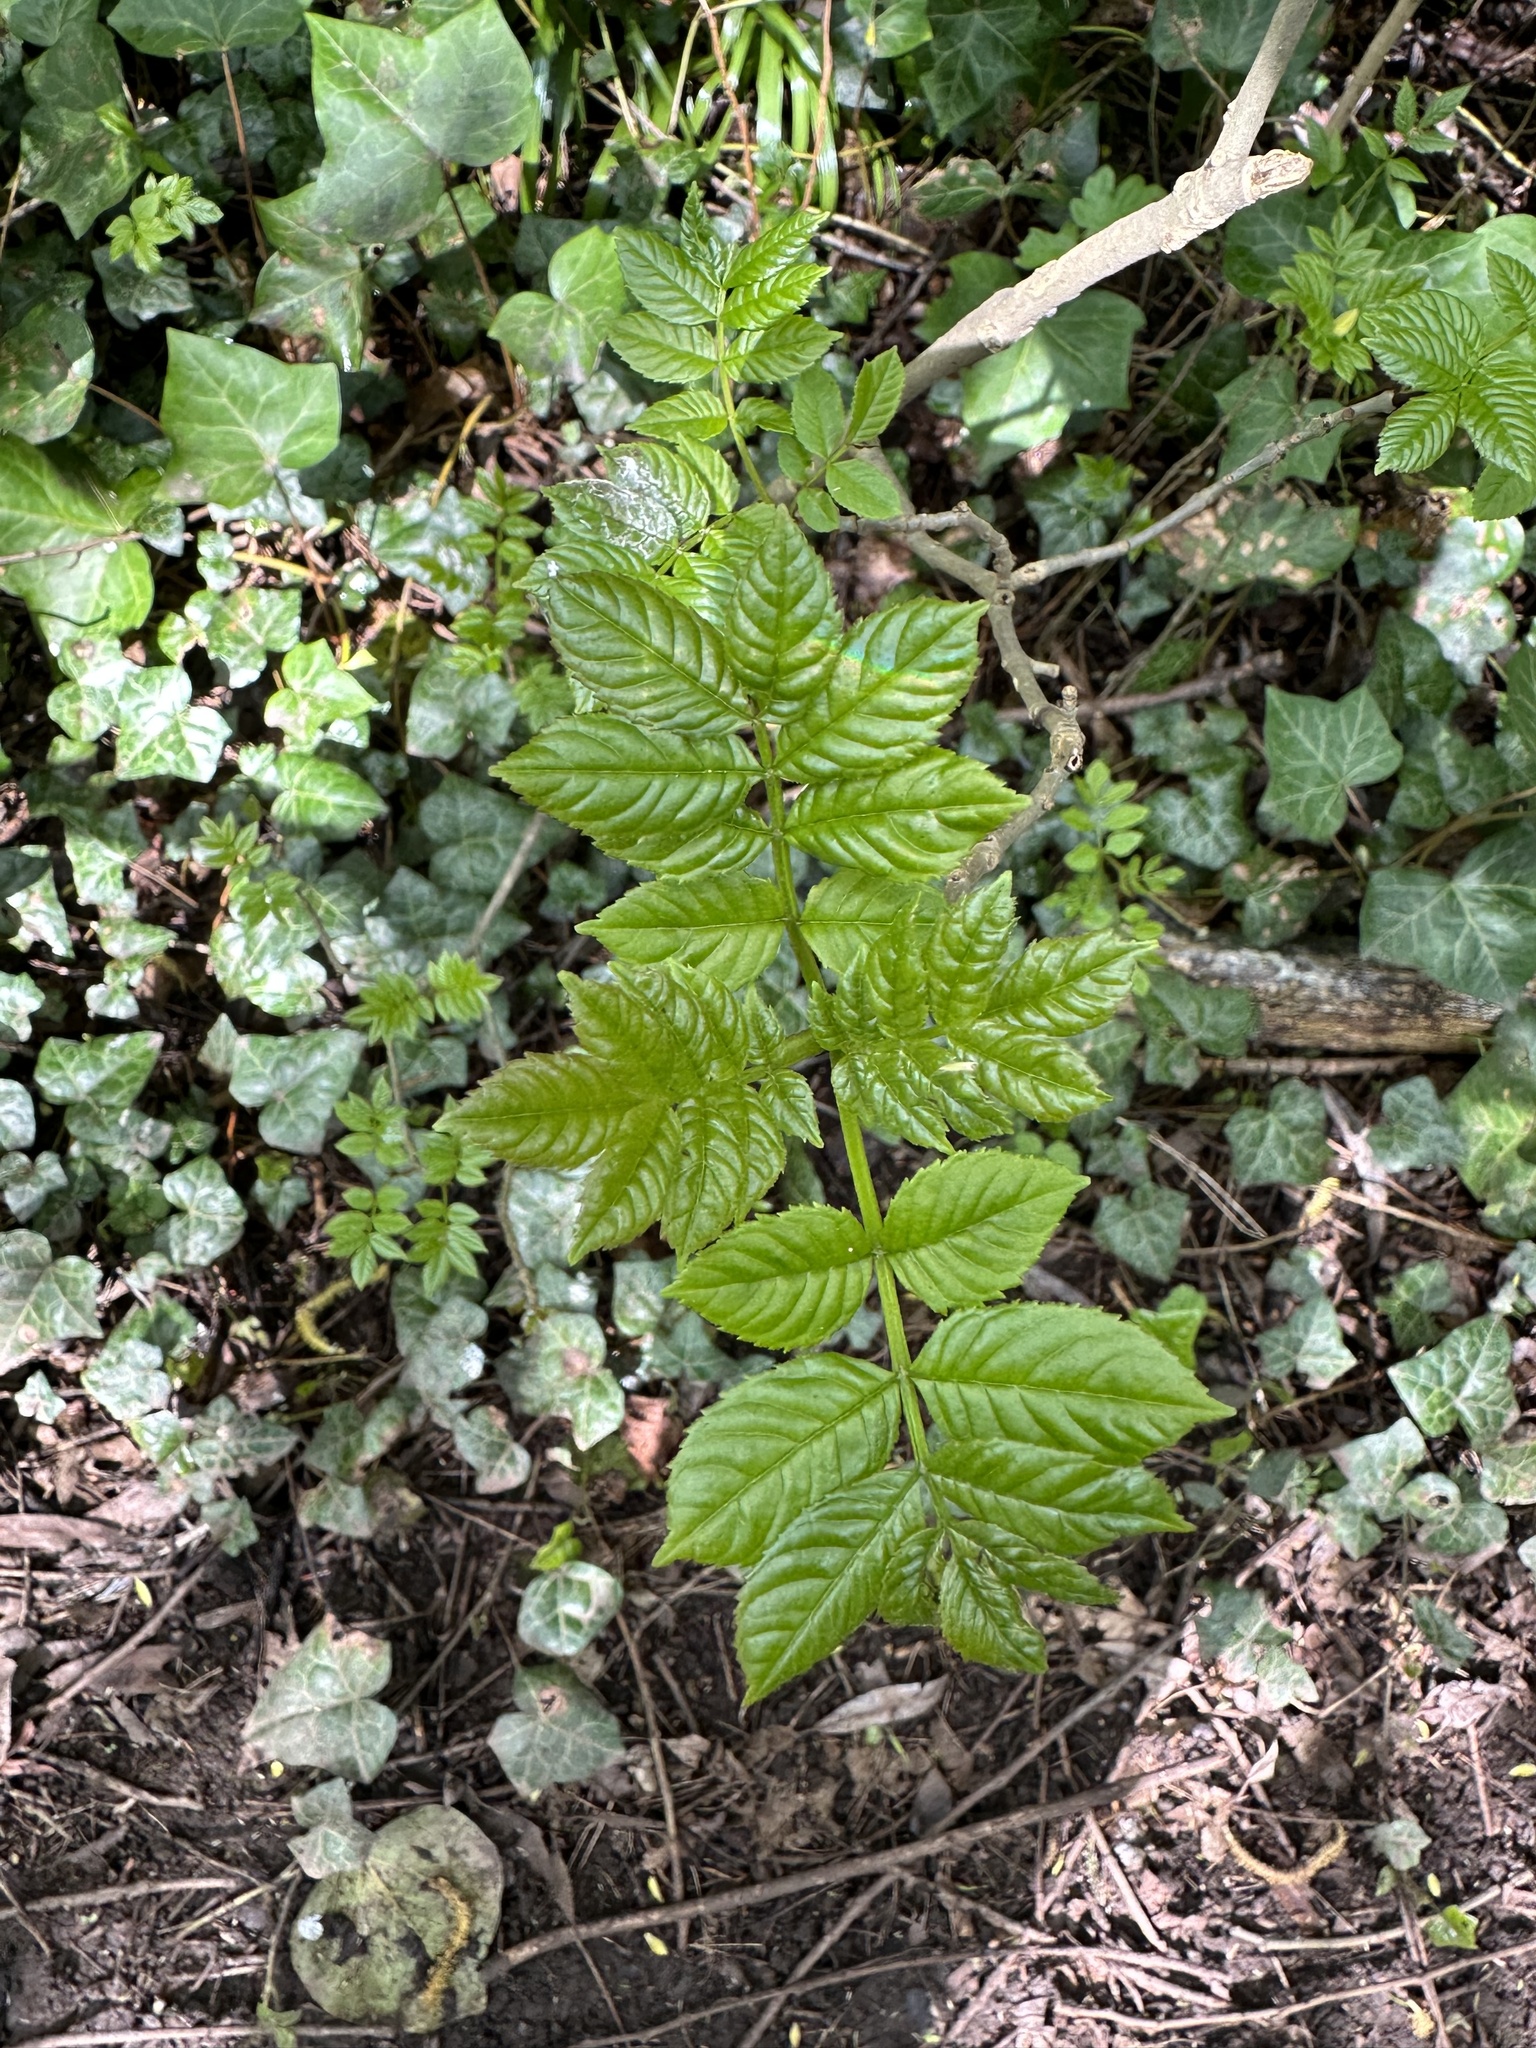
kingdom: Plantae
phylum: Tracheophyta
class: Magnoliopsida
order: Lamiales
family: Oleaceae
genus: Fraxinus
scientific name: Fraxinus excelsior
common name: European ash
